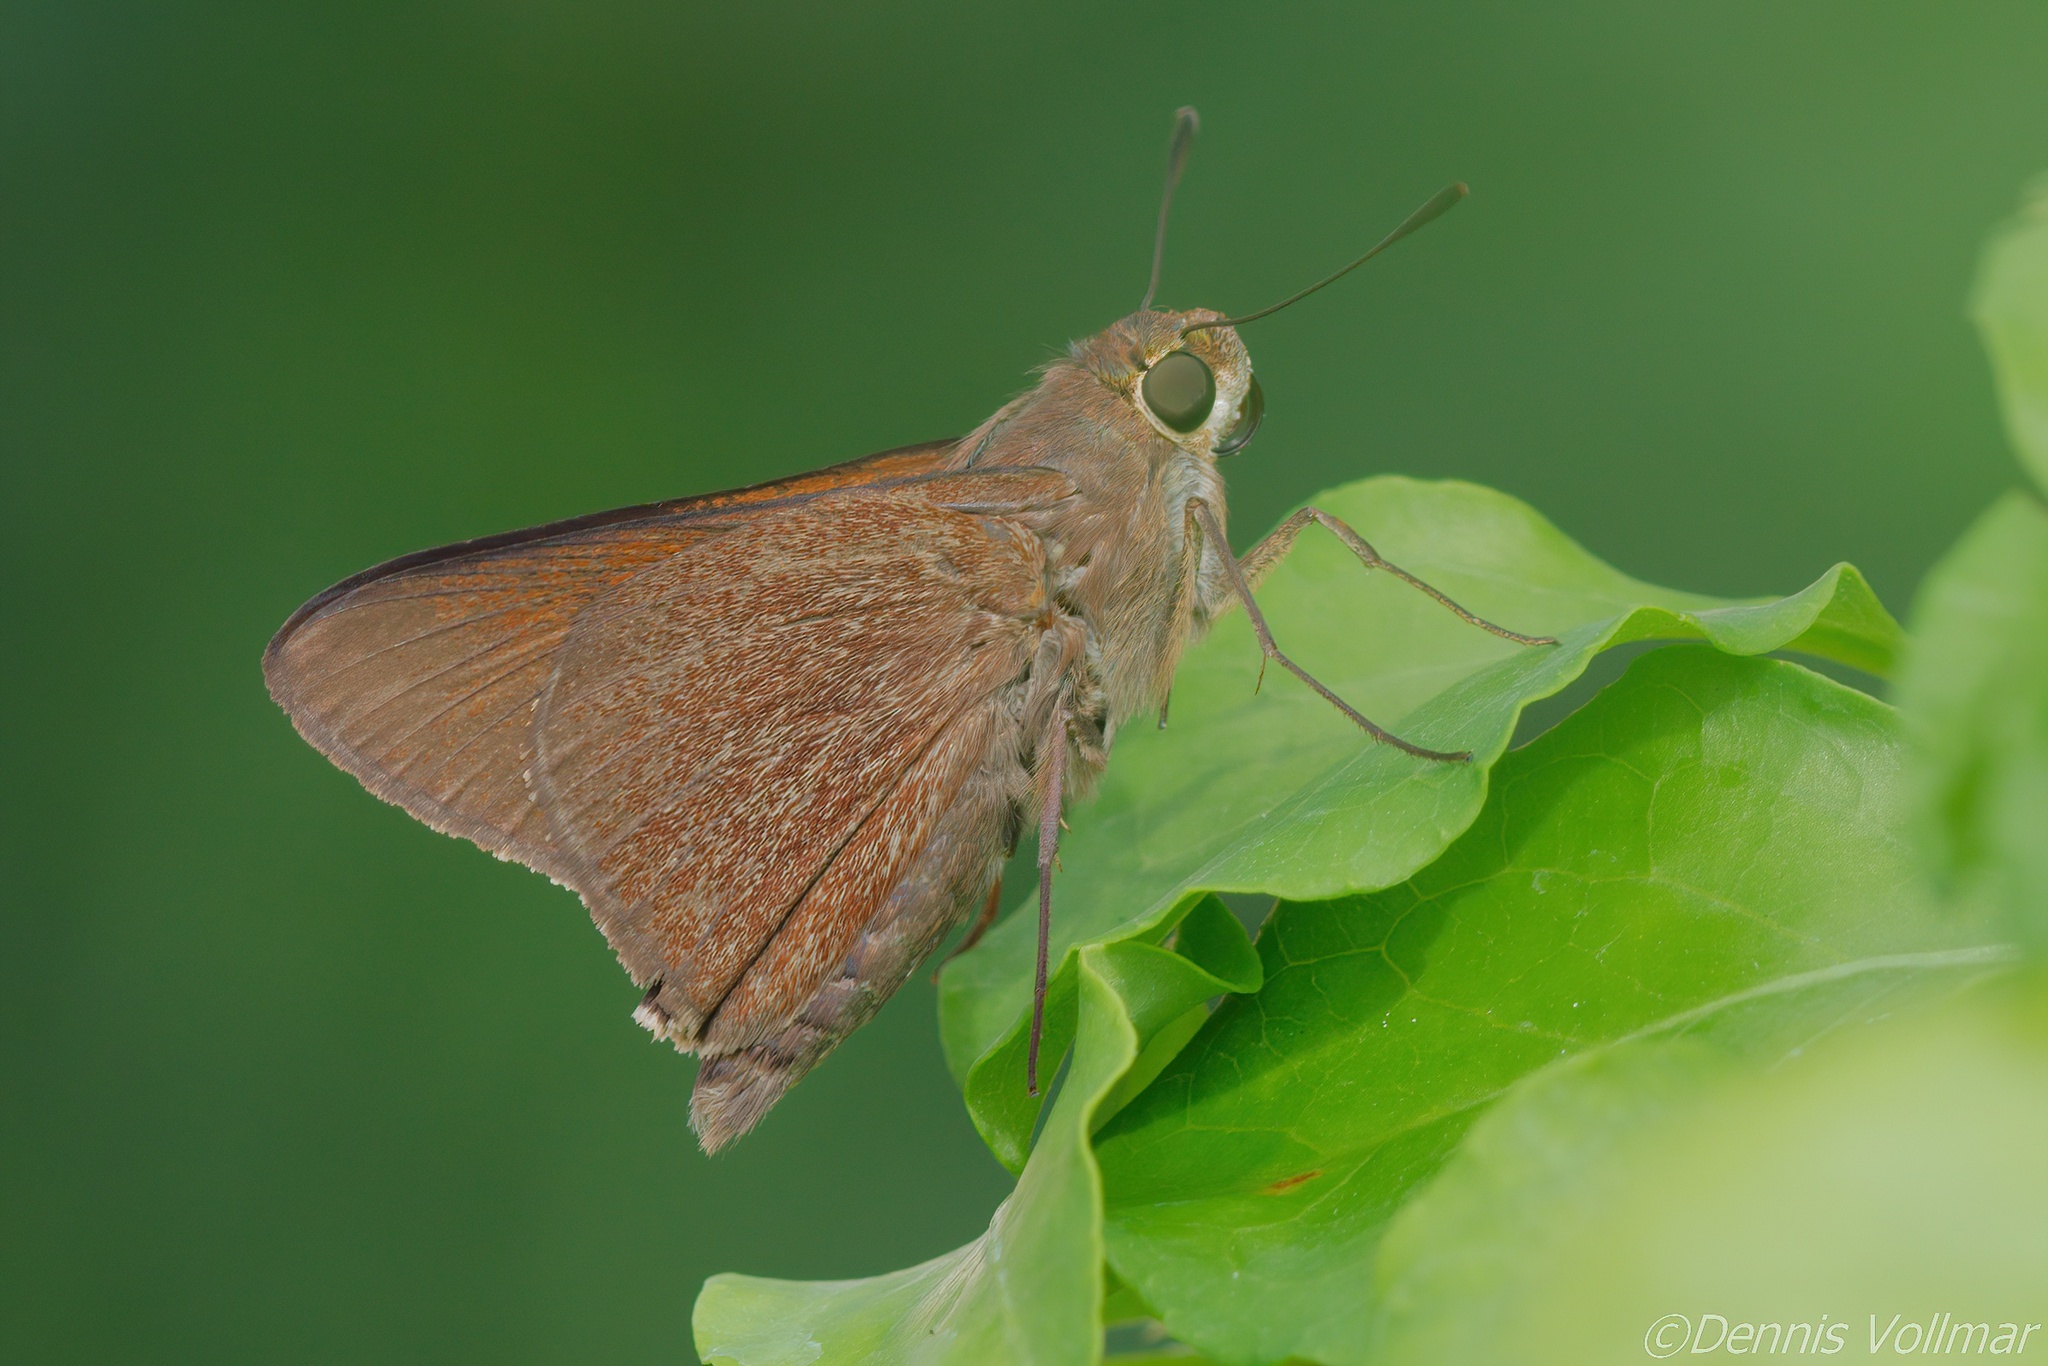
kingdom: Animalia
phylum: Arthropoda
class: Insecta
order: Lepidoptera
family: Hesperiidae
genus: Asbolis
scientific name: Asbolis capucinus
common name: Monk skipper
